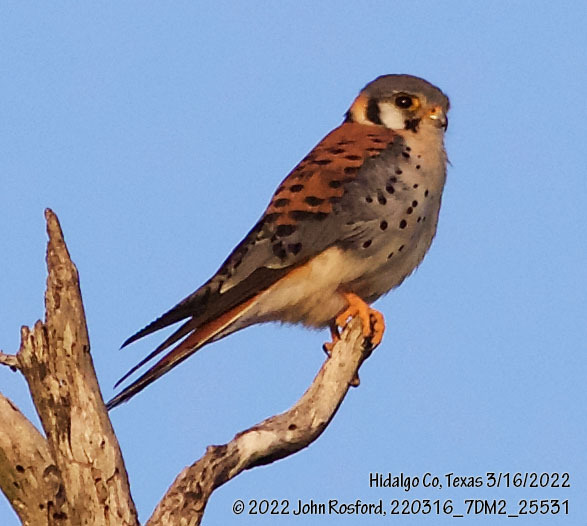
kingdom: Animalia
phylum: Chordata
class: Aves
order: Falconiformes
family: Falconidae
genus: Falco
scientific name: Falco sparverius
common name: American kestrel
